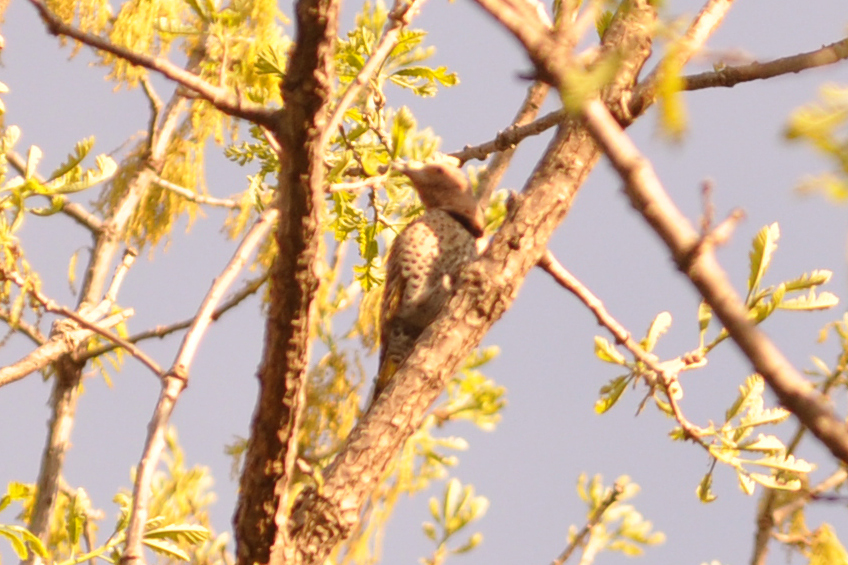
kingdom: Animalia
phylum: Chordata
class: Aves
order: Piciformes
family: Picidae
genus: Colaptes
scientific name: Colaptes auratus
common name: Northern flicker
